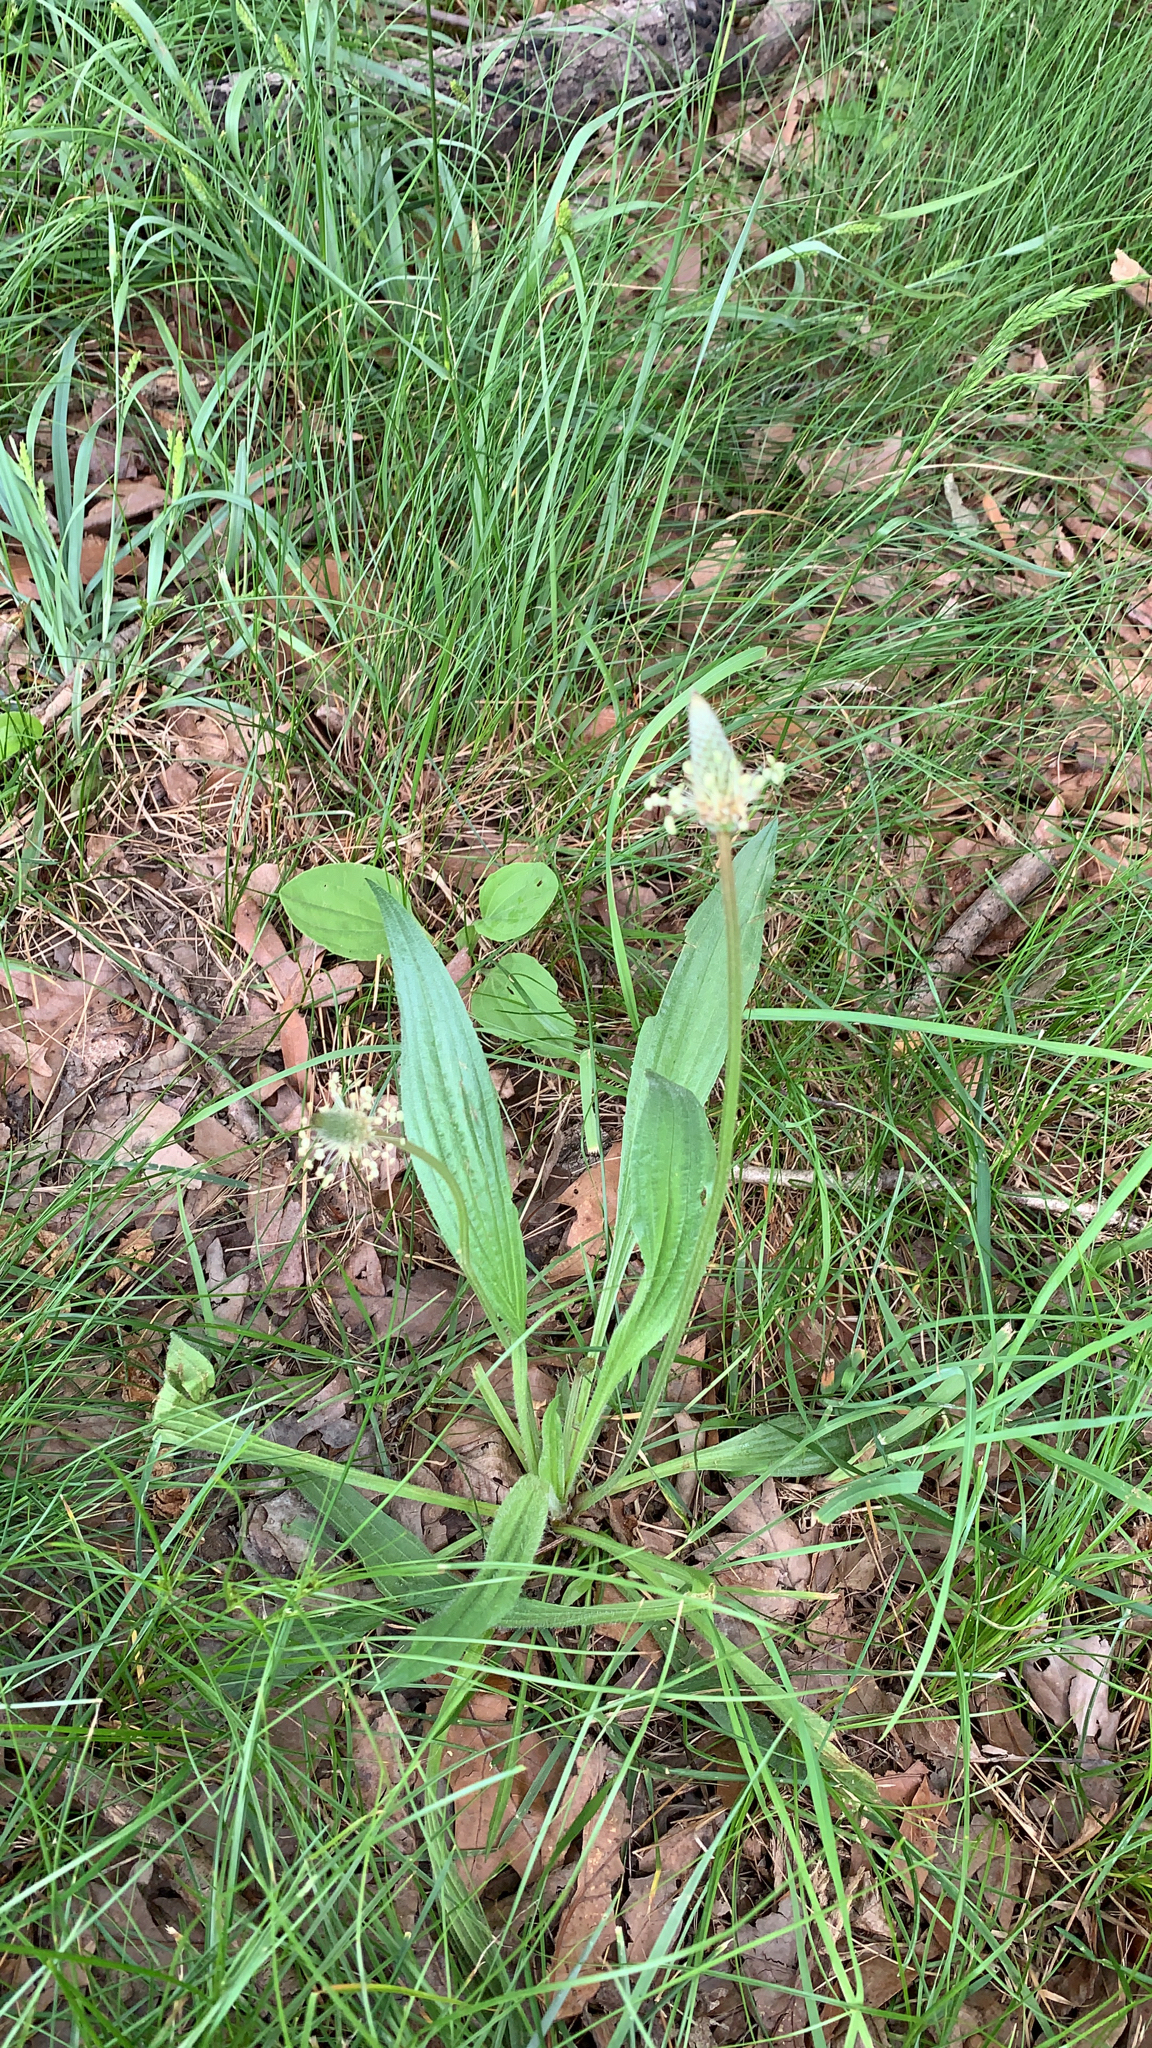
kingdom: Plantae
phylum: Tracheophyta
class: Magnoliopsida
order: Lamiales
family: Plantaginaceae
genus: Plantago
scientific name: Plantago lanceolata
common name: Ribwort plantain
